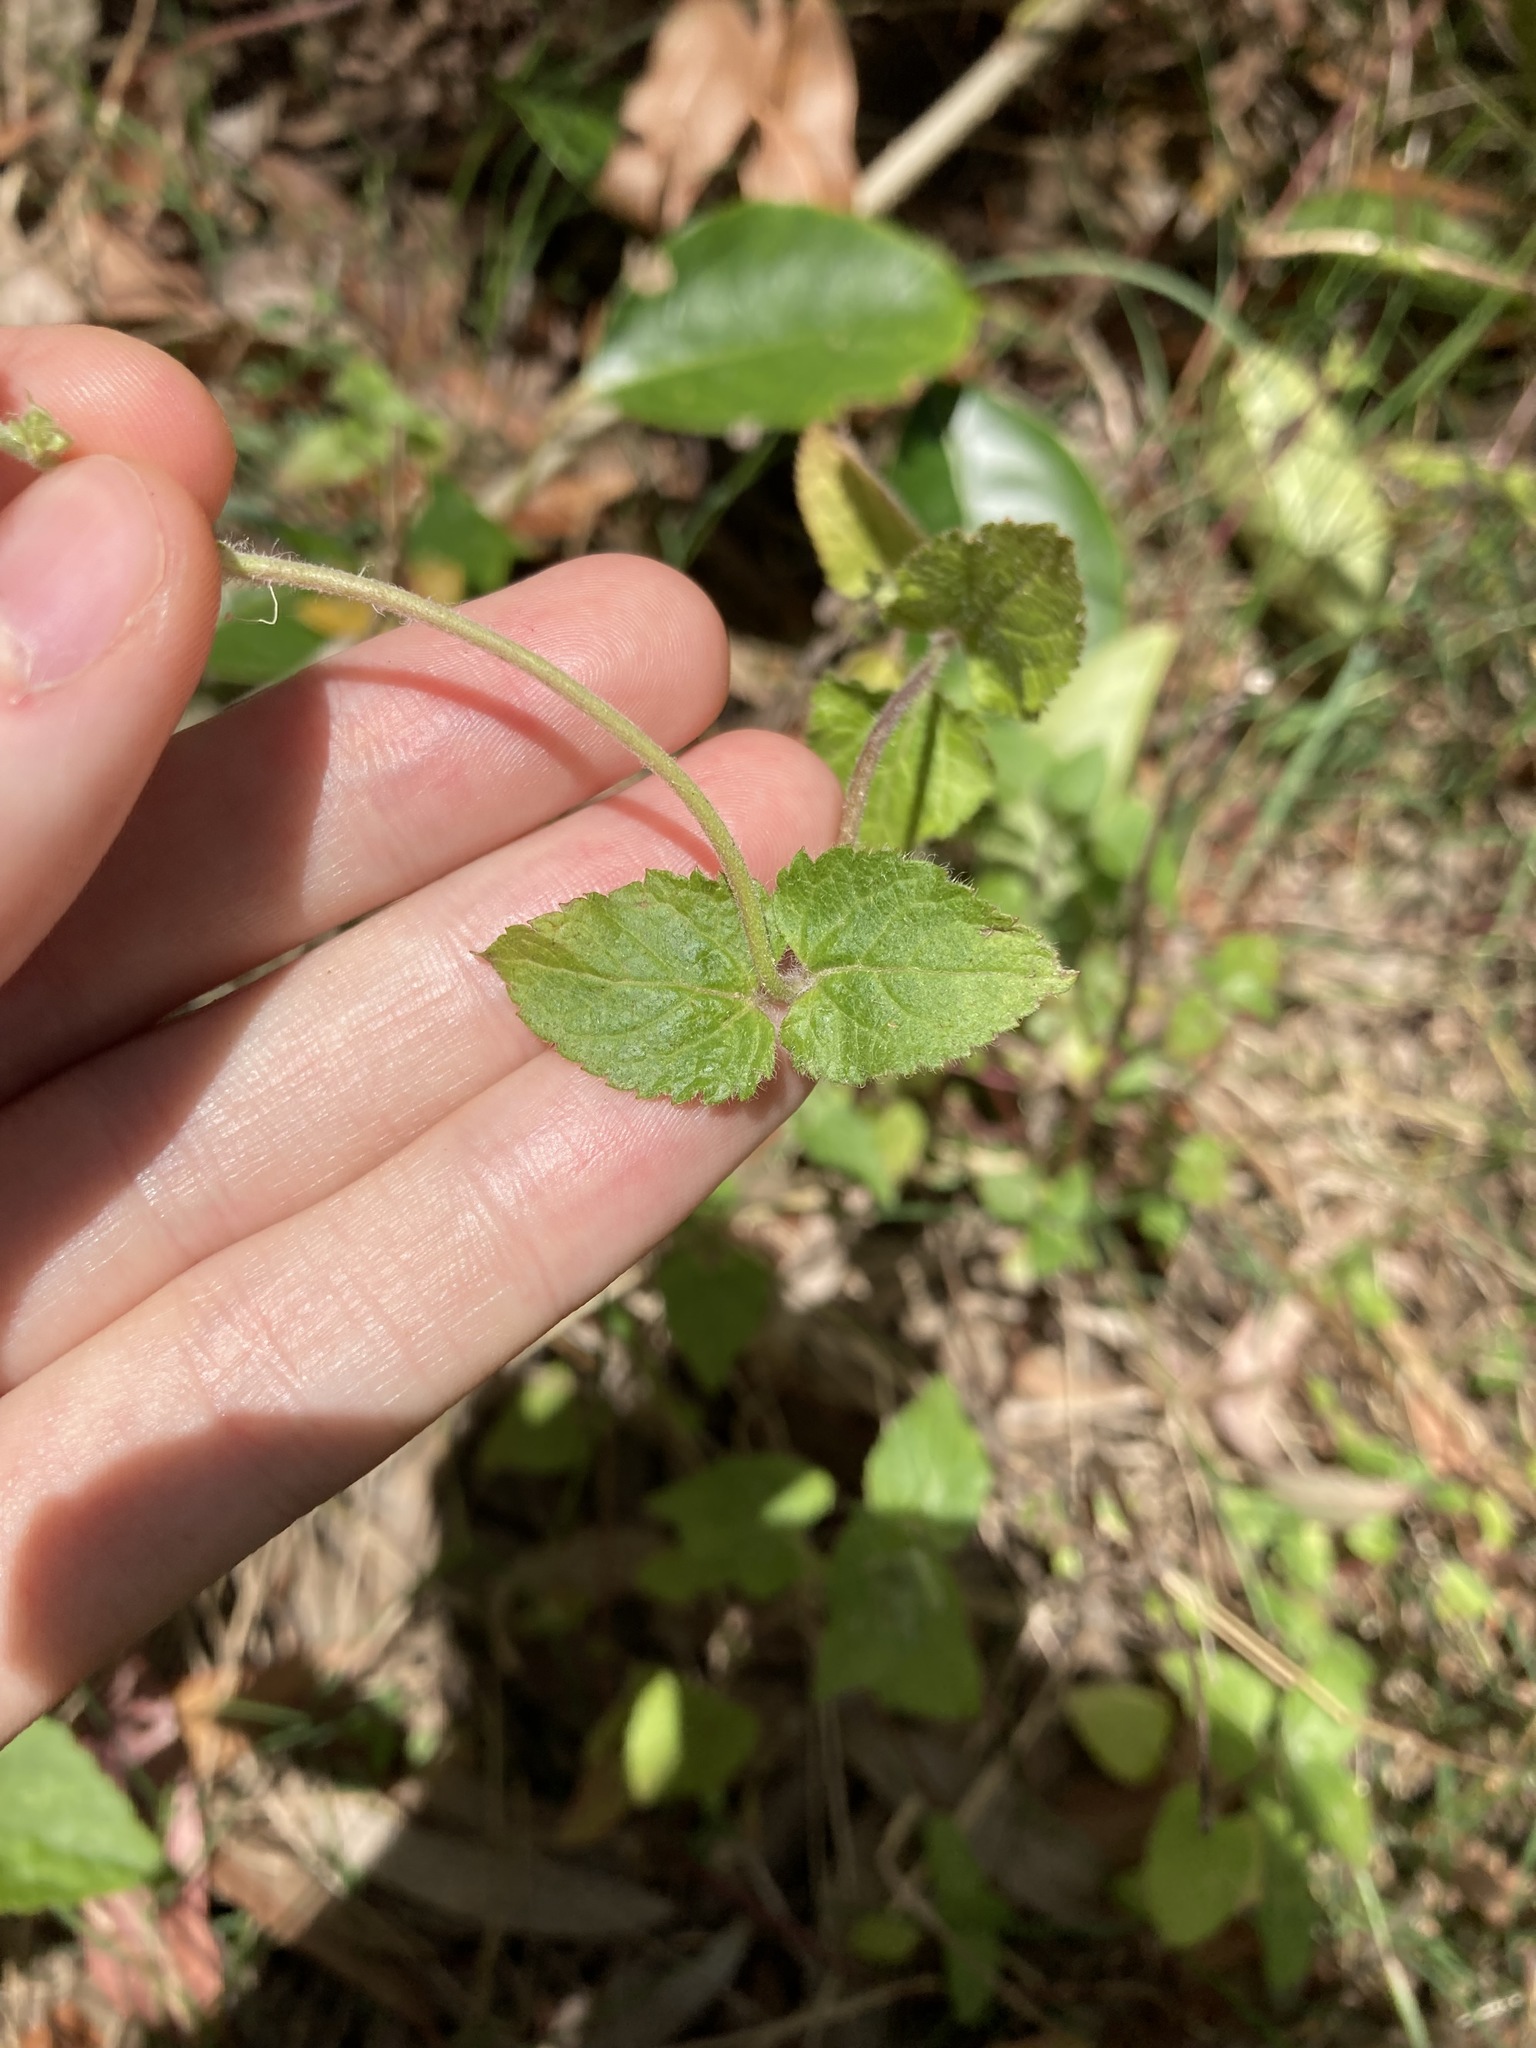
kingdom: Plantae
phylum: Tracheophyta
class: Magnoliopsida
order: Asterales
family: Asteraceae
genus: Ageratum
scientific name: Ageratum houstonianum
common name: Bluemink
